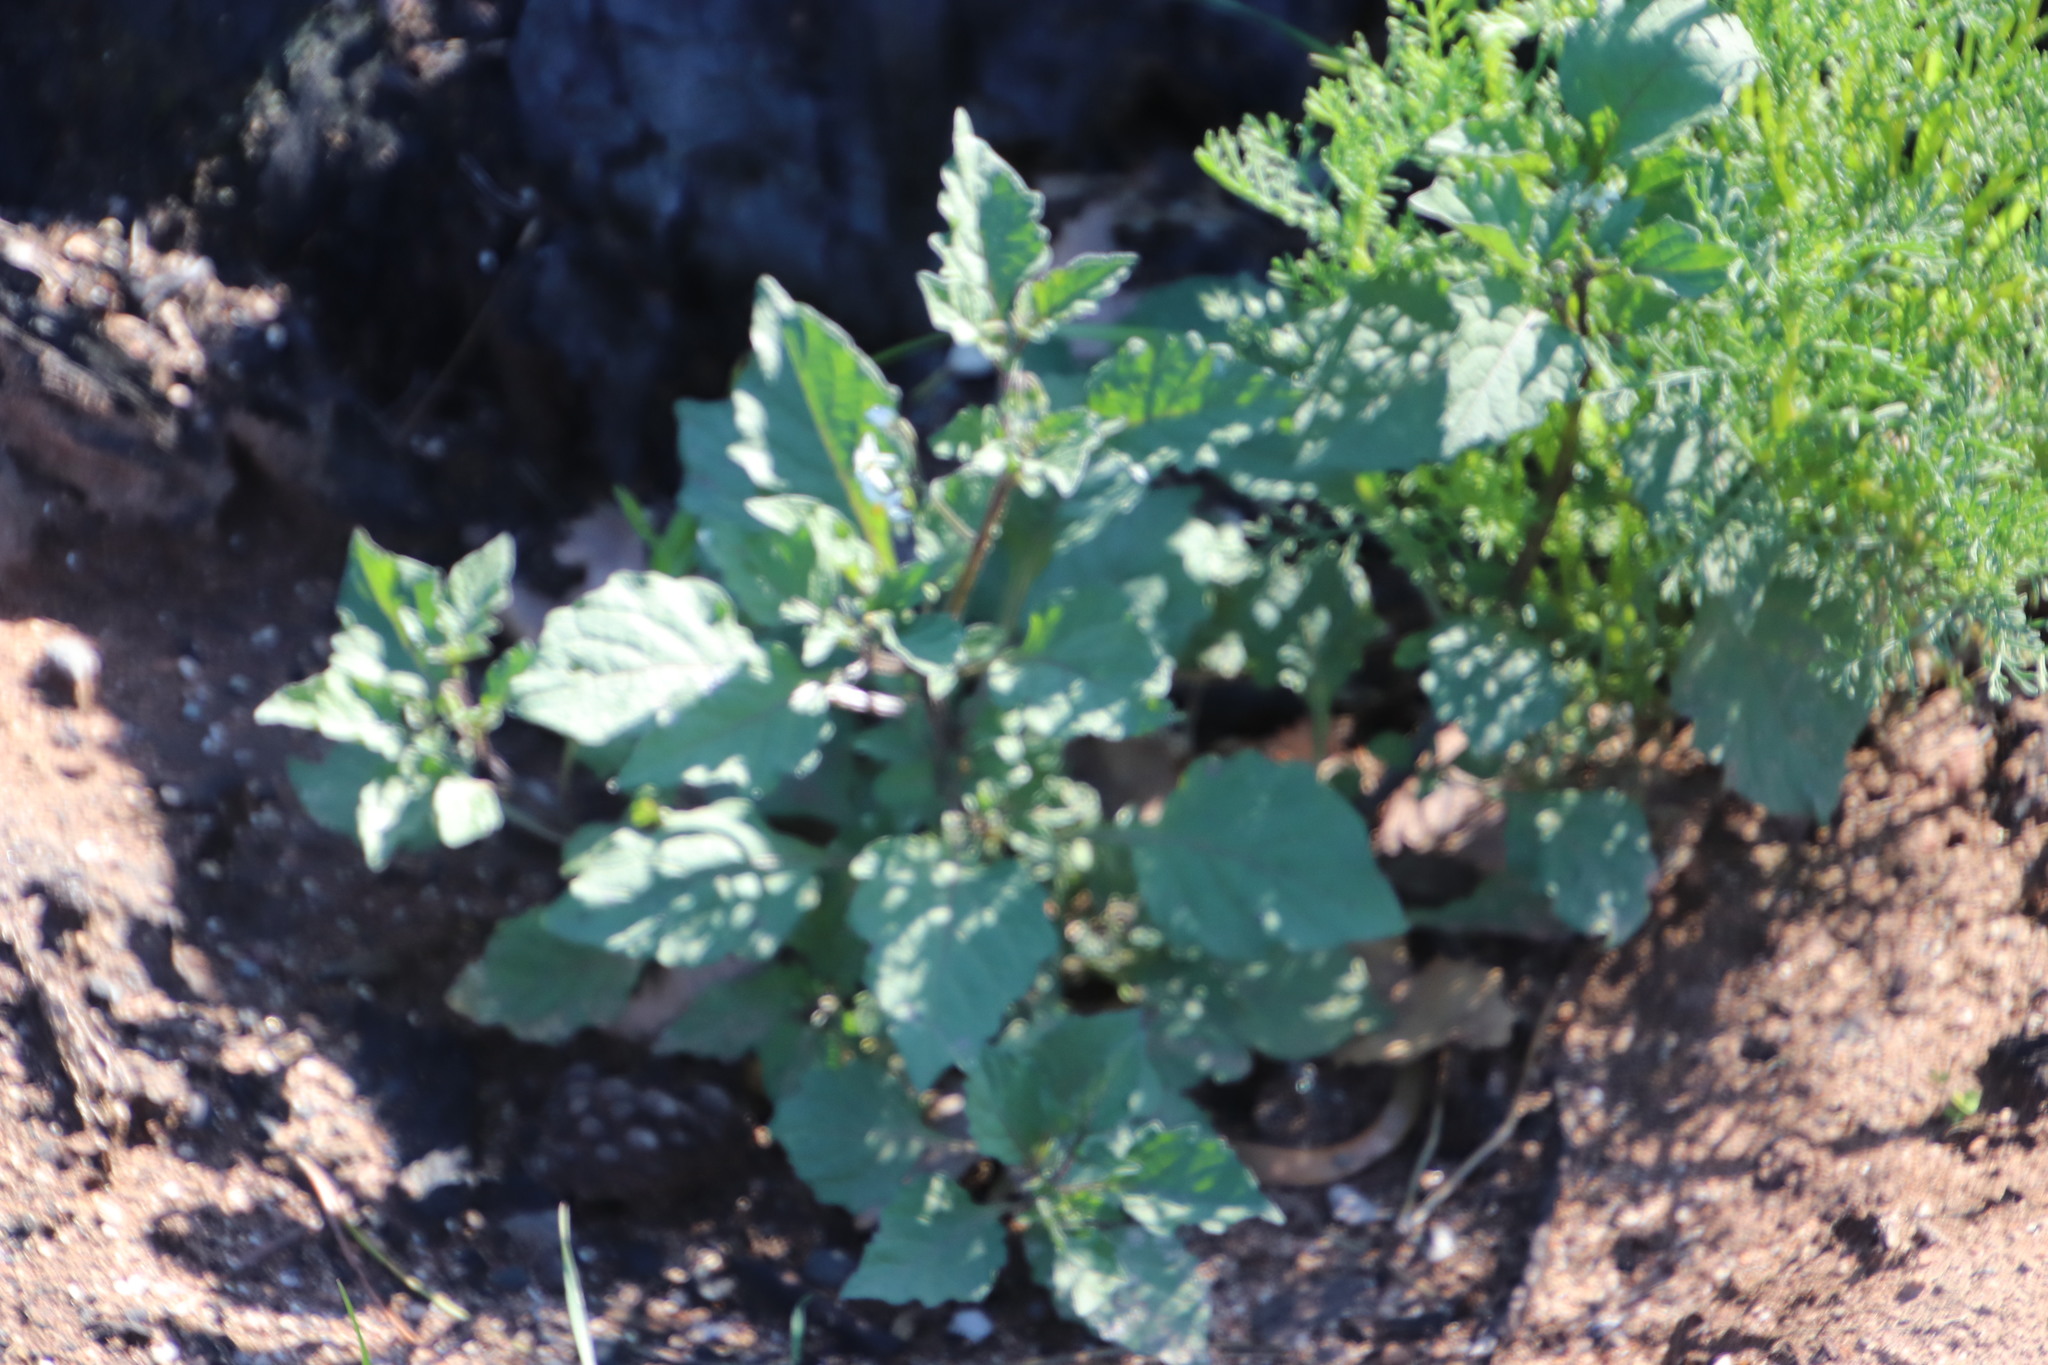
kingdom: Plantae
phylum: Tracheophyta
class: Magnoliopsida
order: Solanales
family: Solanaceae
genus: Solanum
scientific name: Solanum nigrum
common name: Black nightshade
